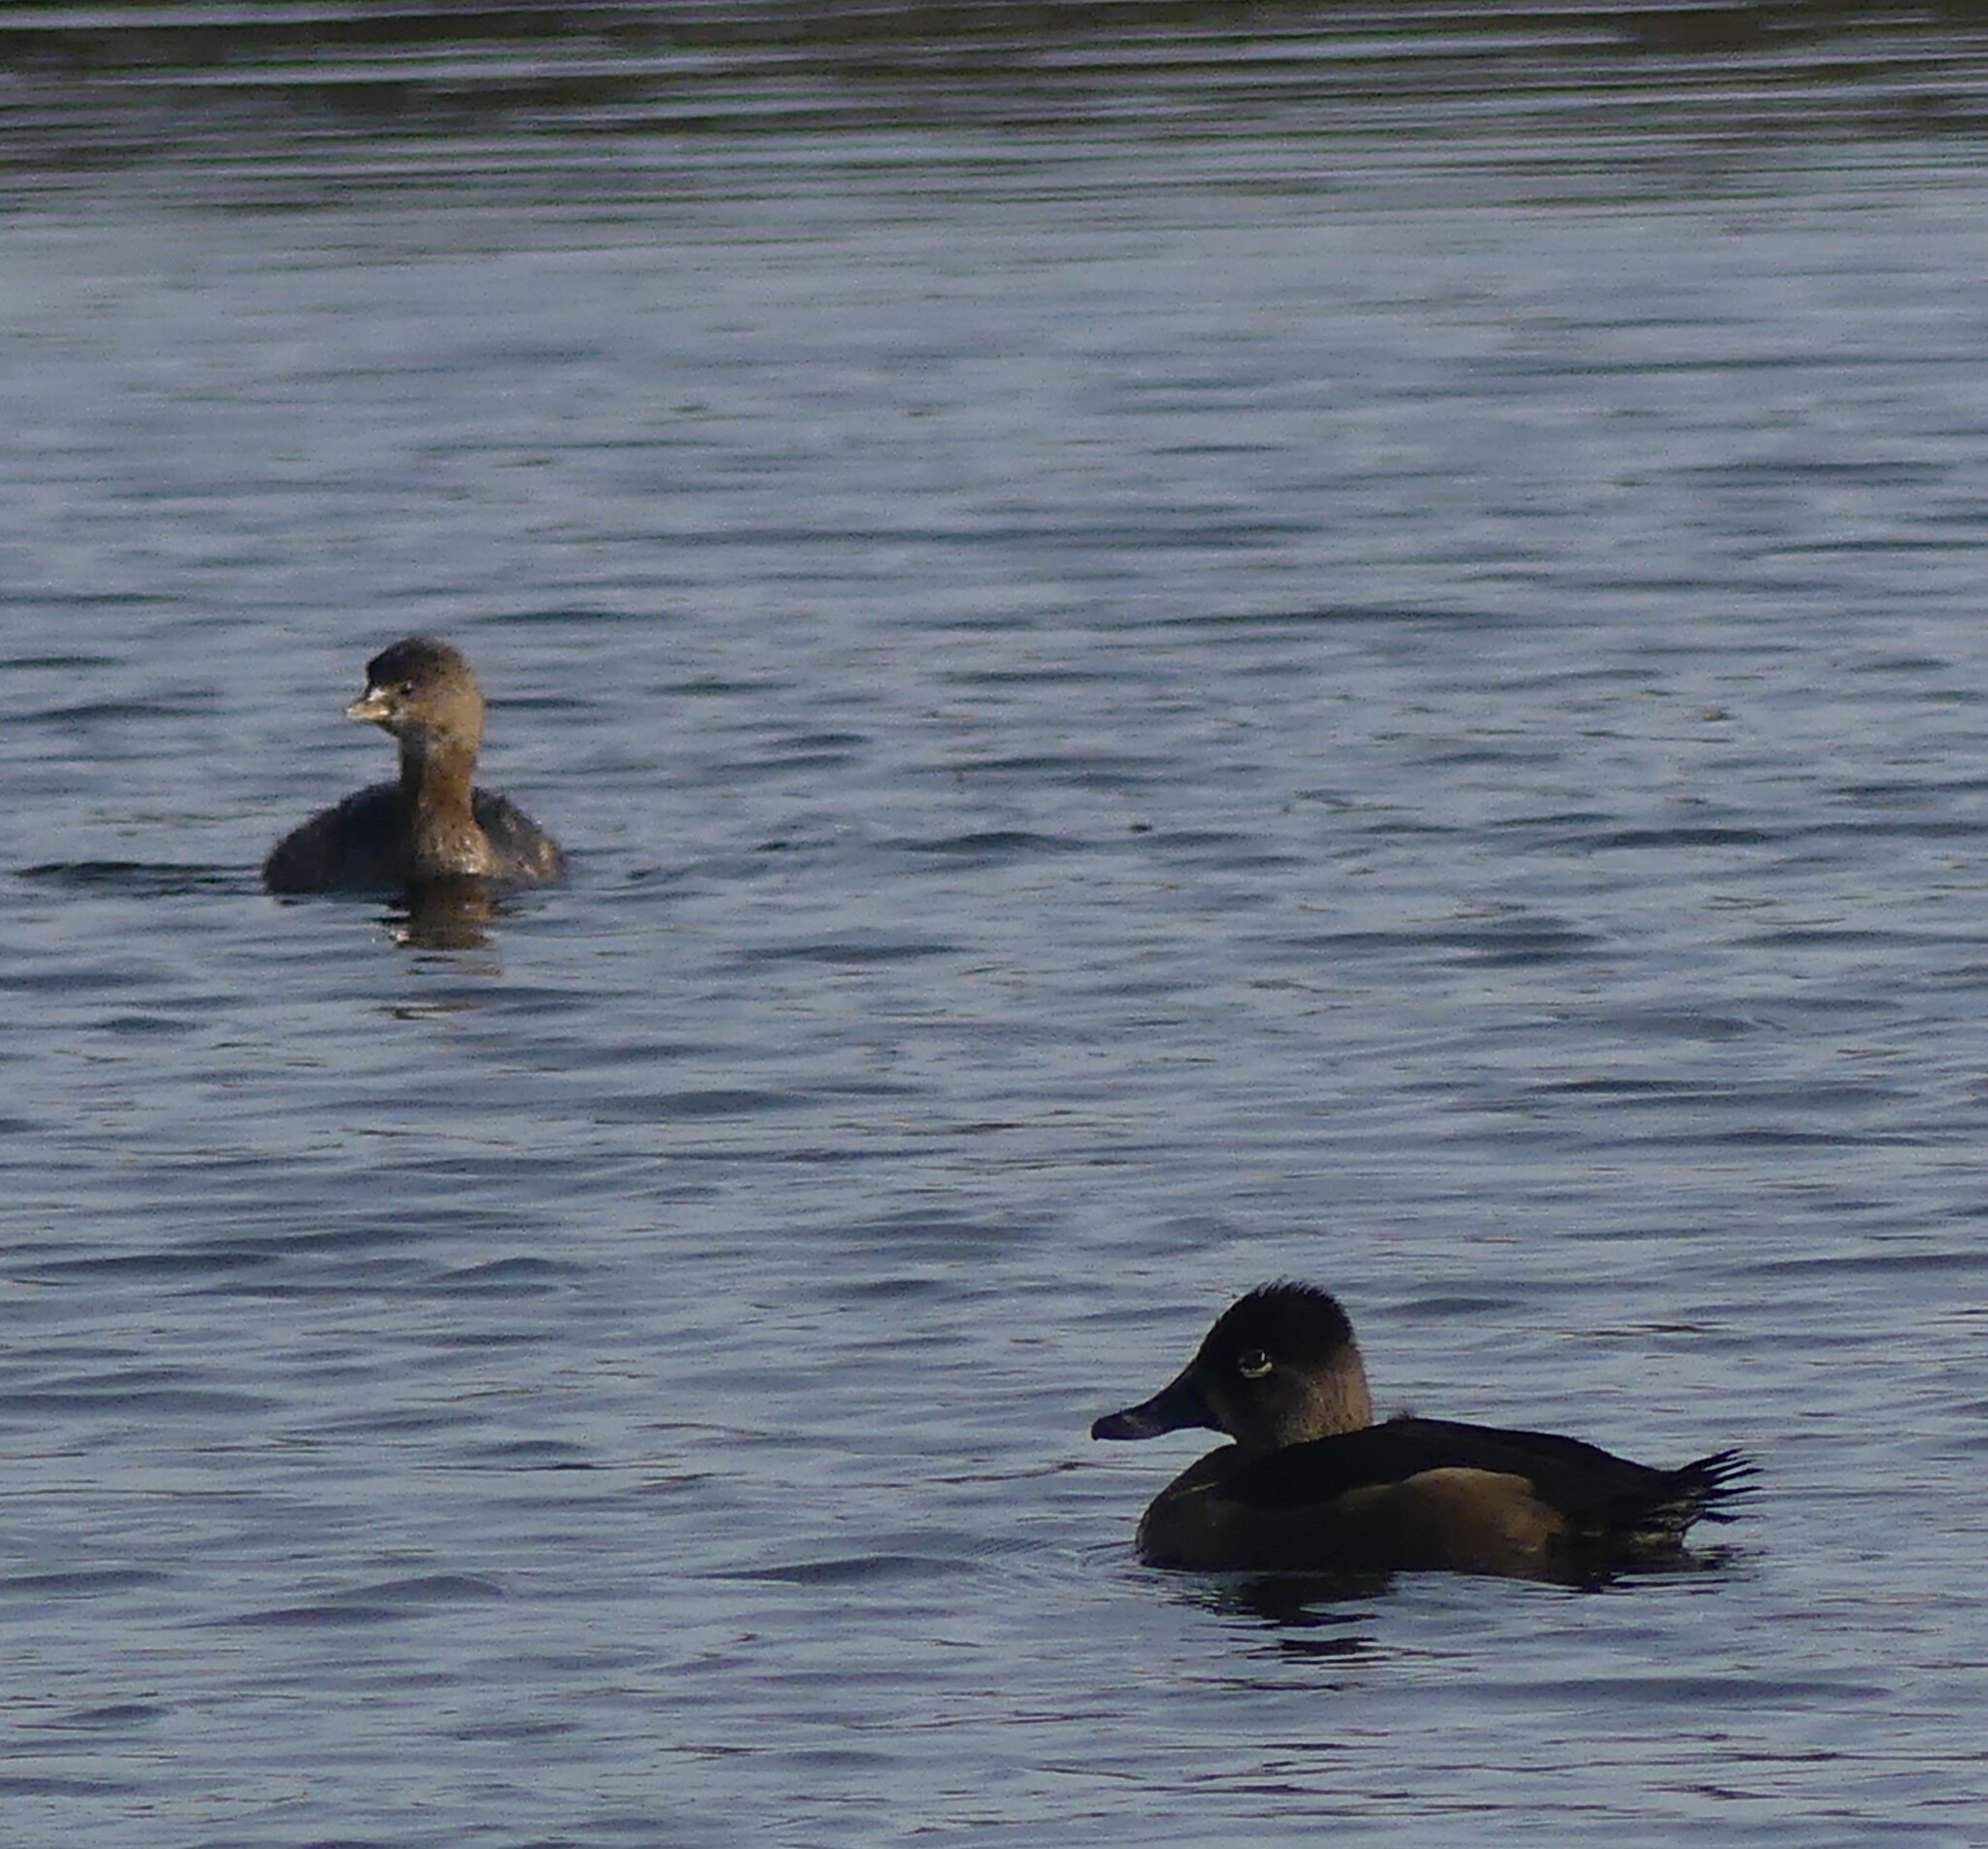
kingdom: Animalia
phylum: Chordata
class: Aves
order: Anseriformes
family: Anatidae
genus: Aythya
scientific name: Aythya collaris
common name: Ring-necked duck
